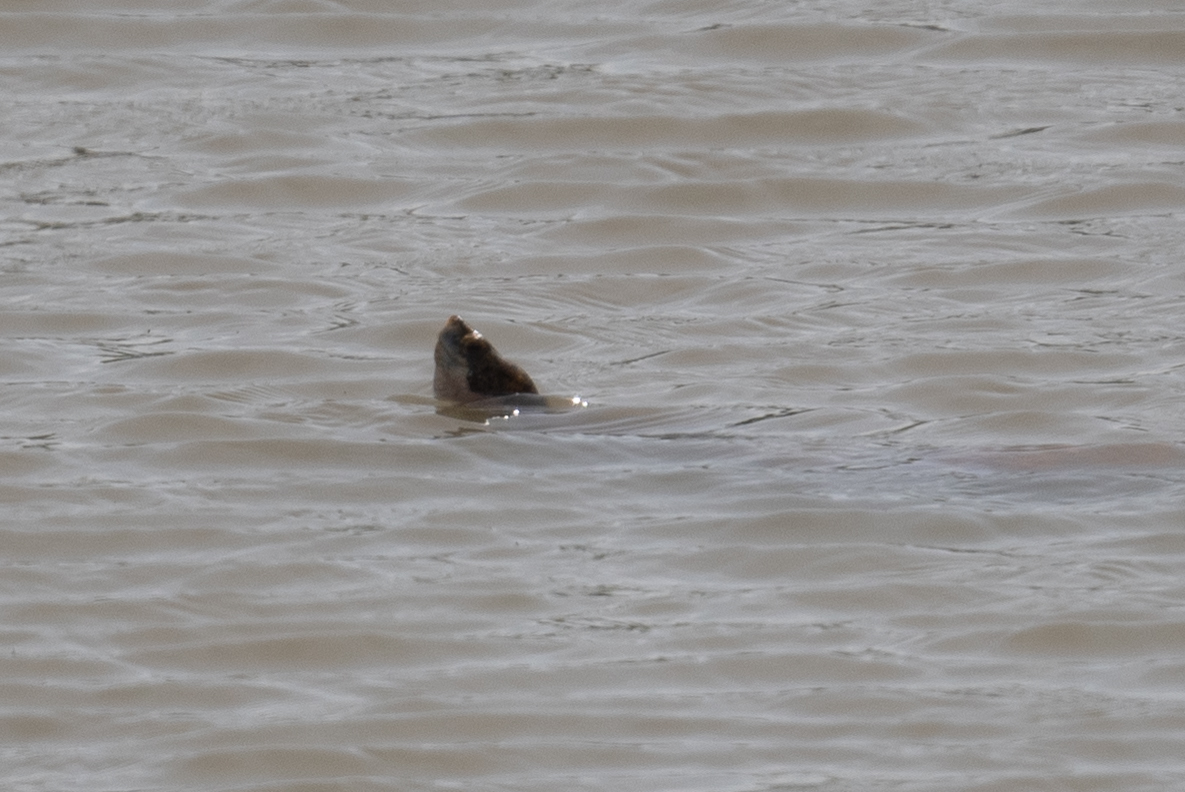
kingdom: Animalia
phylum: Chordata
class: Testudines
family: Emydidae
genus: Actinemys
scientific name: Actinemys marmorata
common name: Western pond turtle
